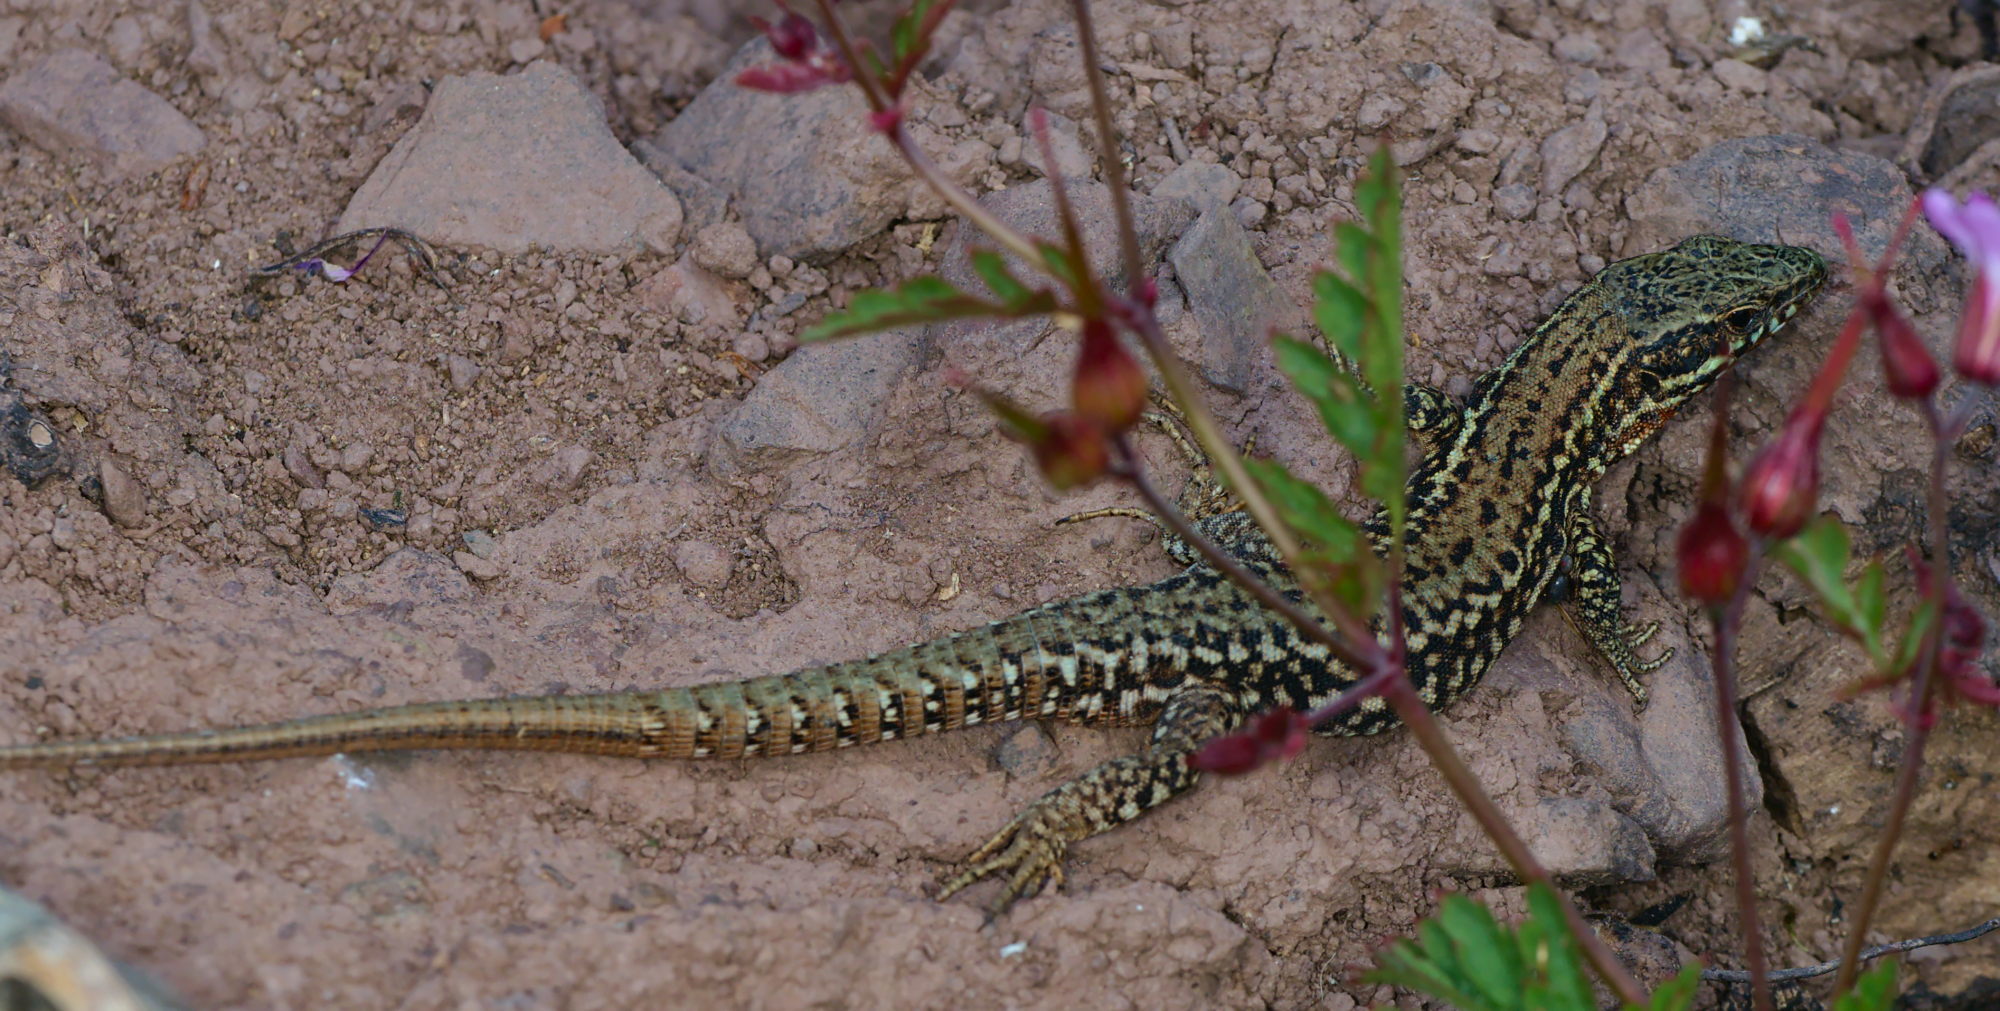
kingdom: Animalia
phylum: Chordata
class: Squamata
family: Lacertidae
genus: Podarcis
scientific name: Podarcis muralis
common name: Common wall lizard
